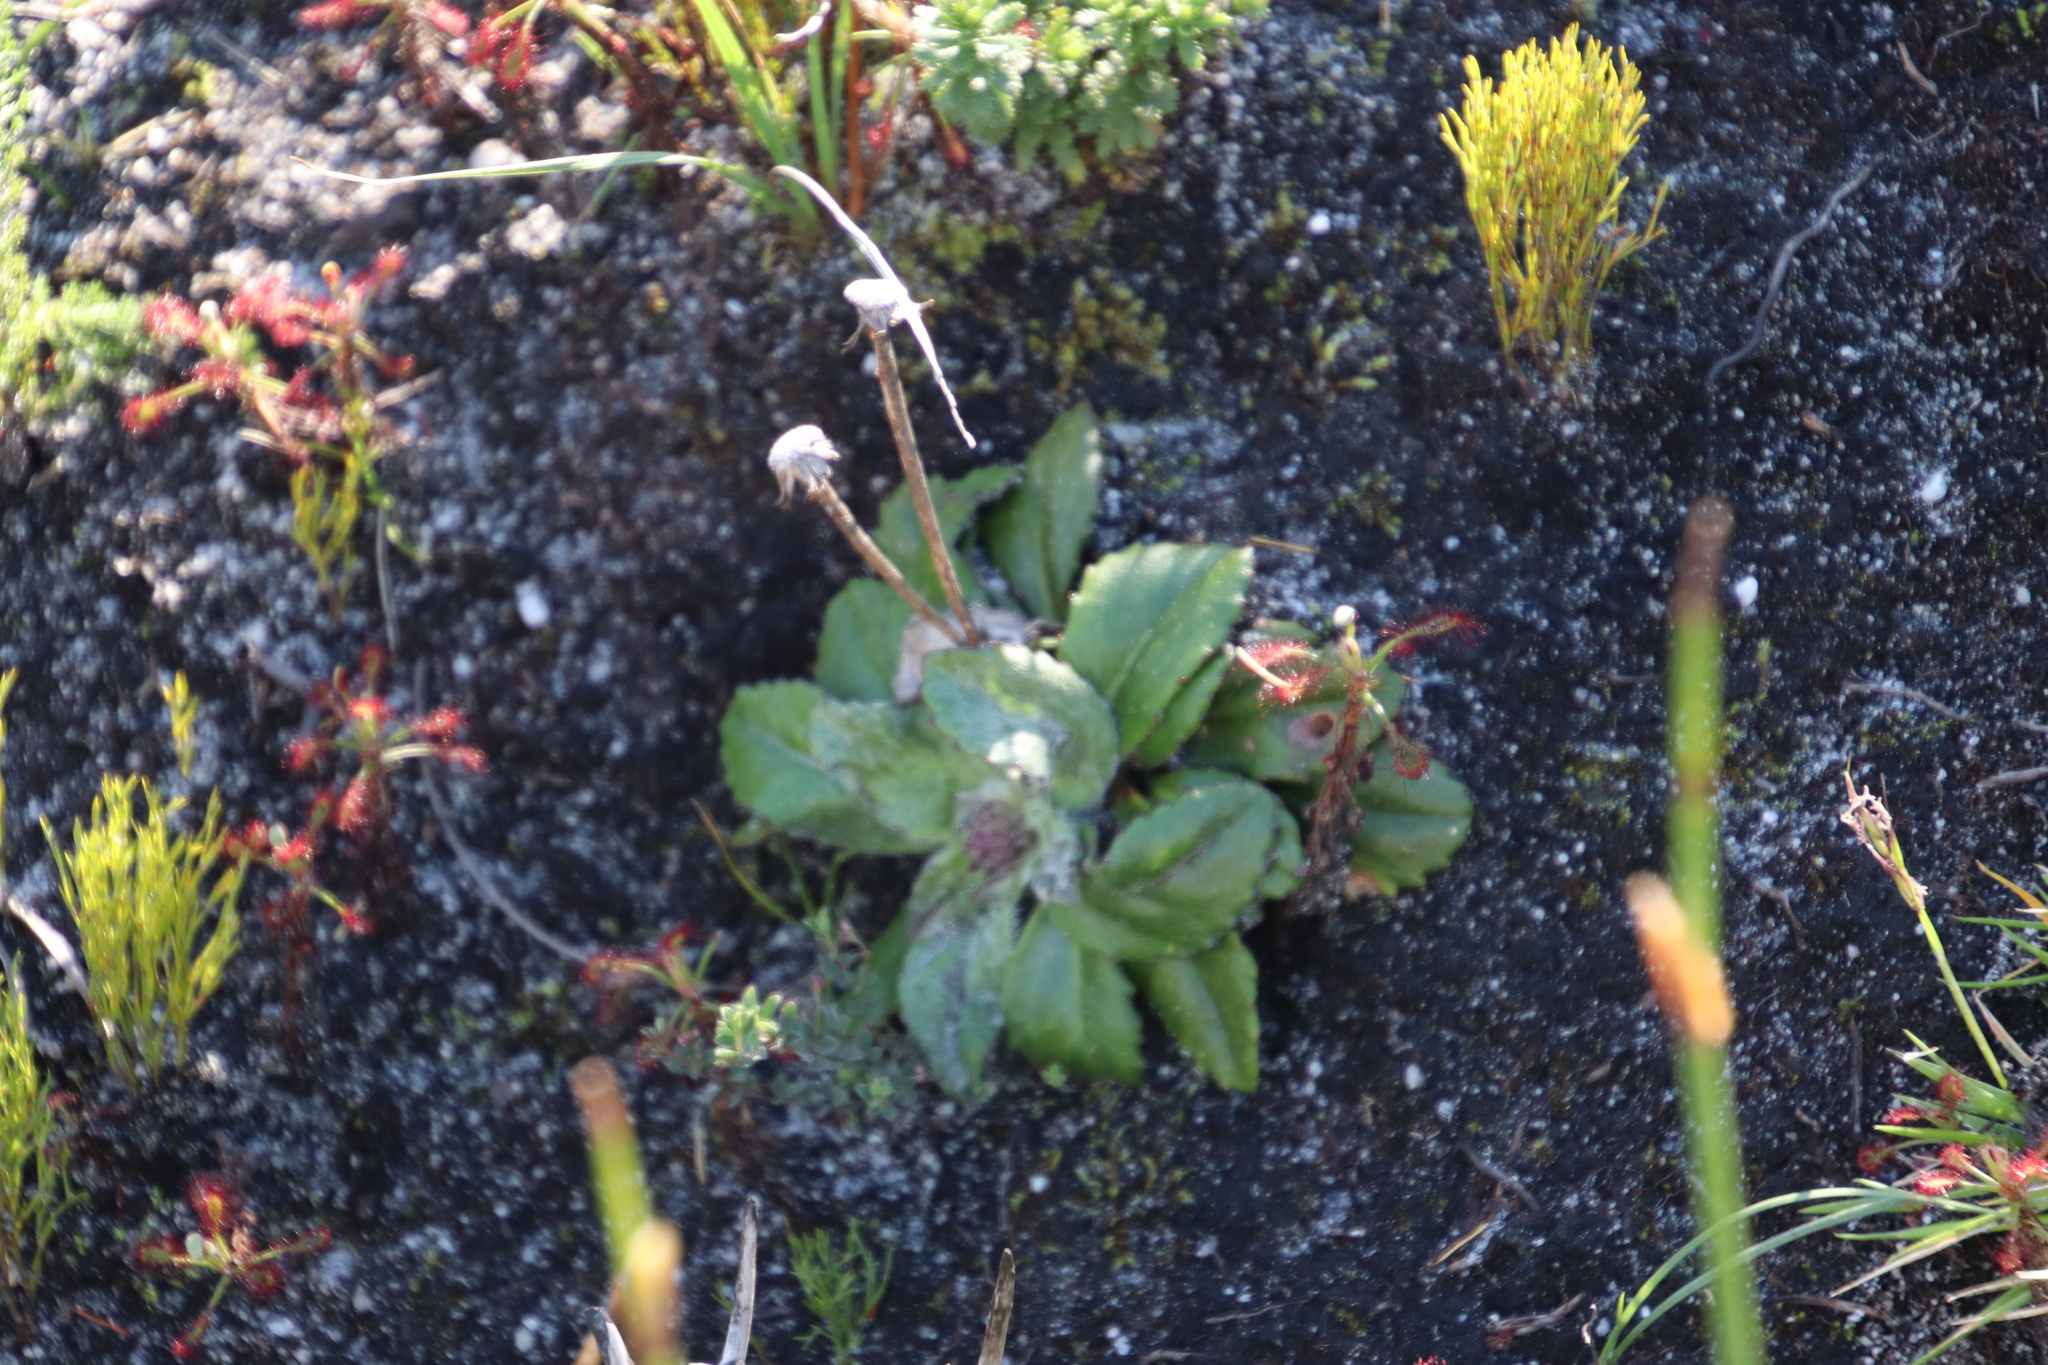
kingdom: Plantae
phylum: Tracheophyta
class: Magnoliopsida
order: Asterales
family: Asteraceae
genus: Zyrphelis
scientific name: Zyrphelis crenata
